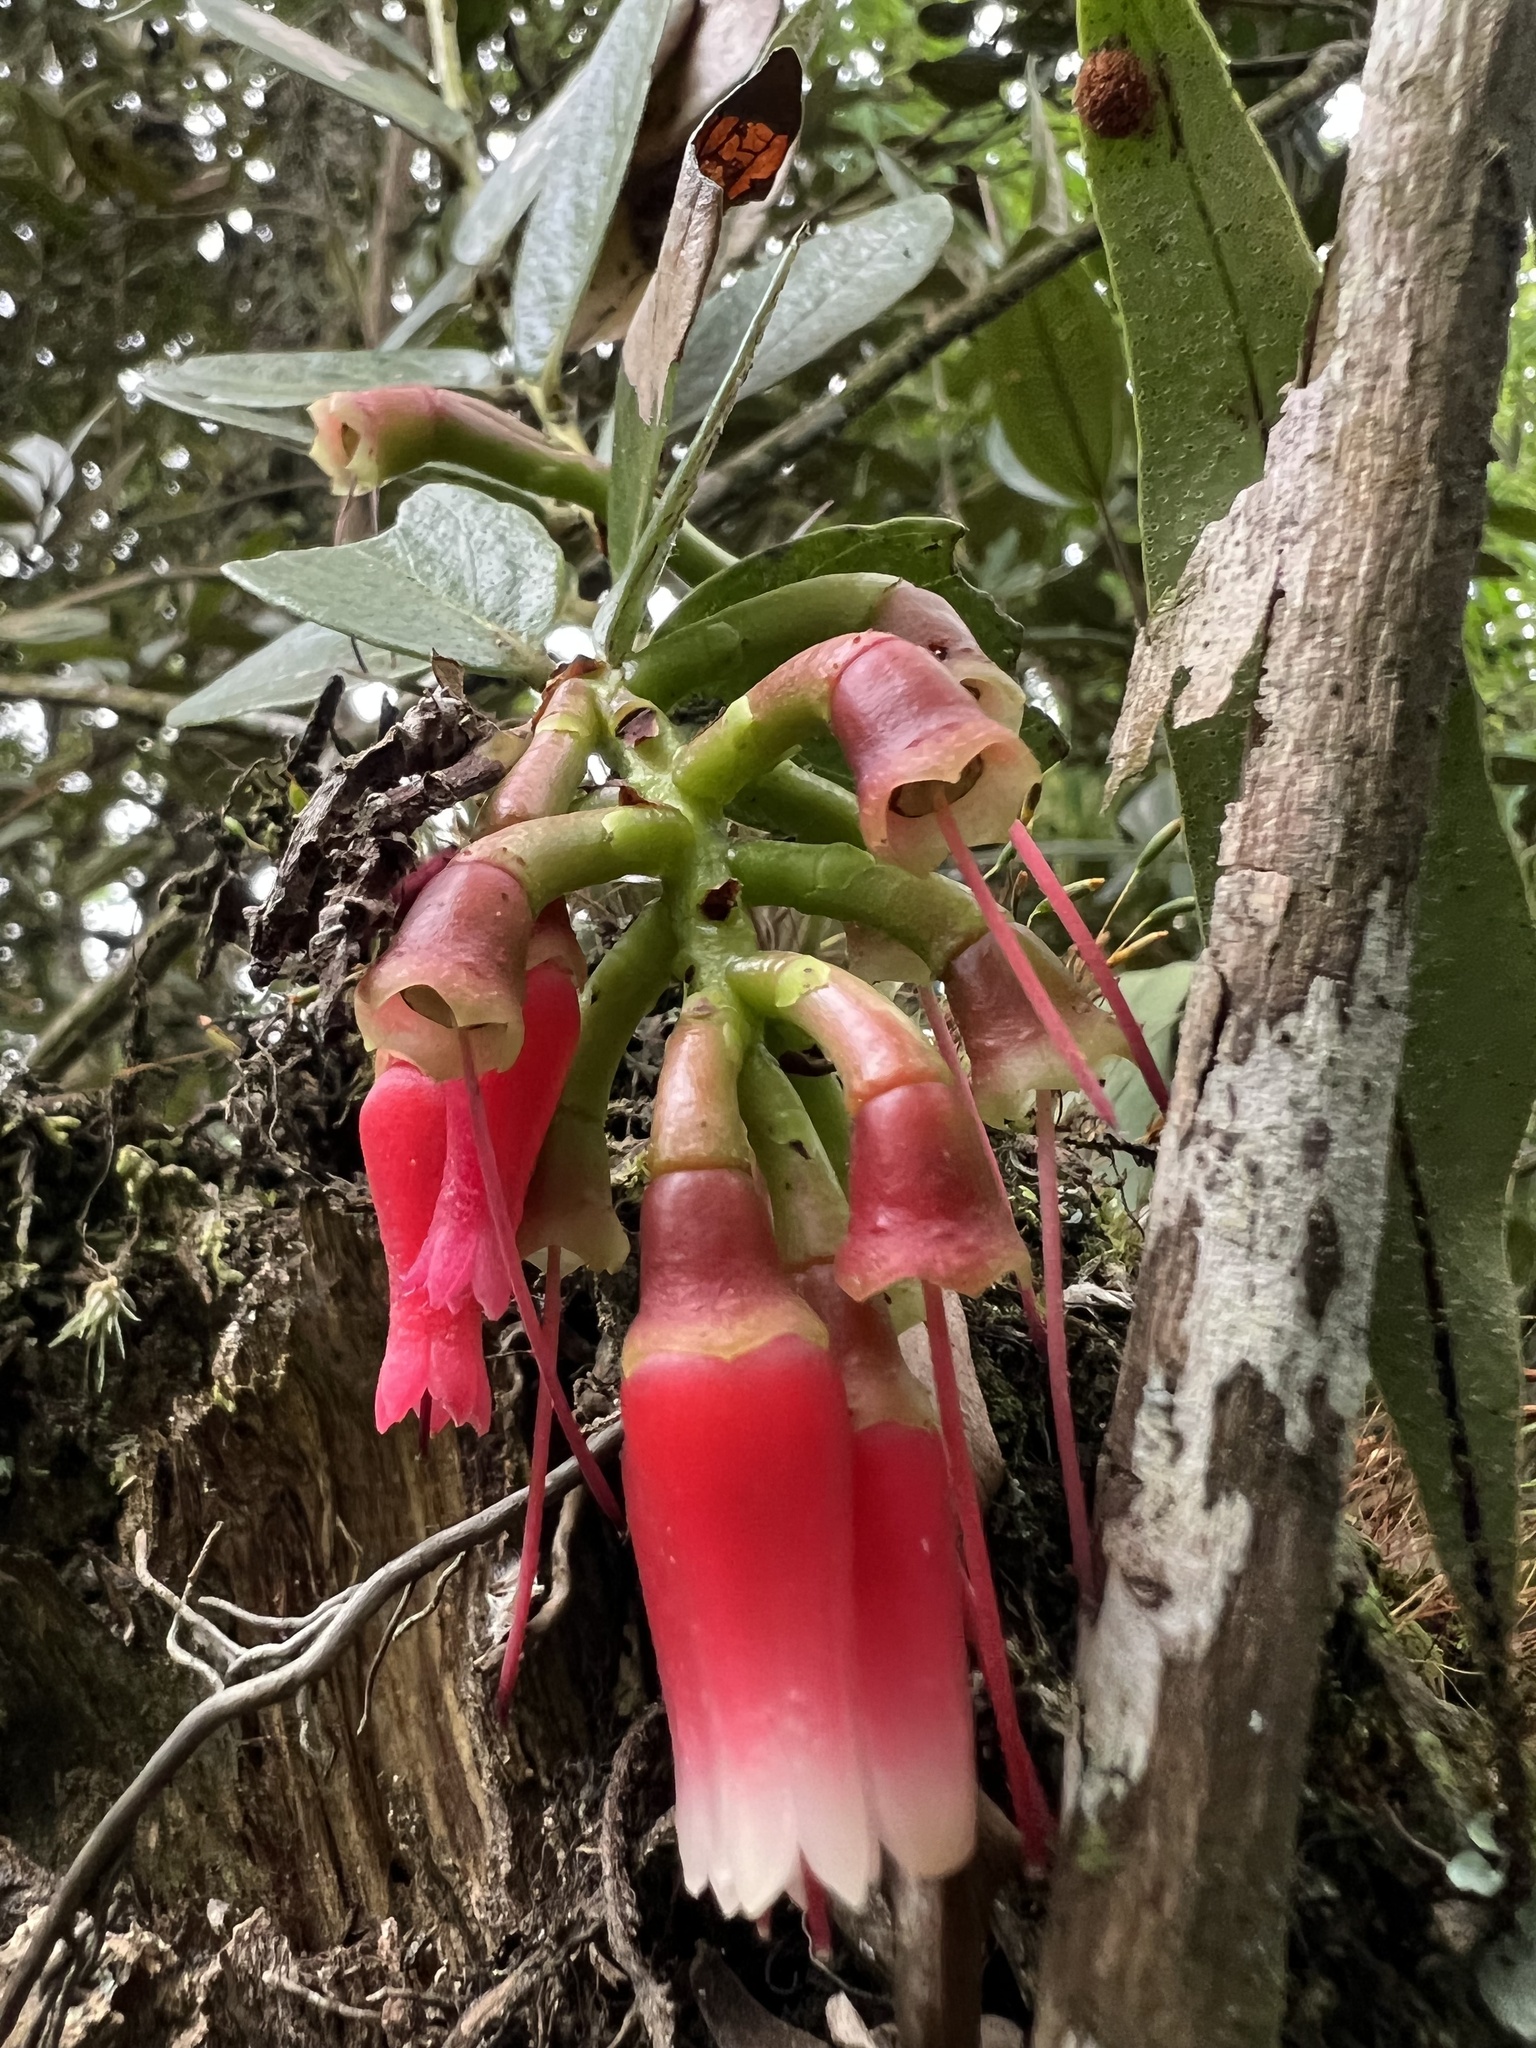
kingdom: Plantae
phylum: Tracheophyta
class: Magnoliopsida
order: Ericales
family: Ericaceae
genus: Macleania
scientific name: Macleania rupestris
